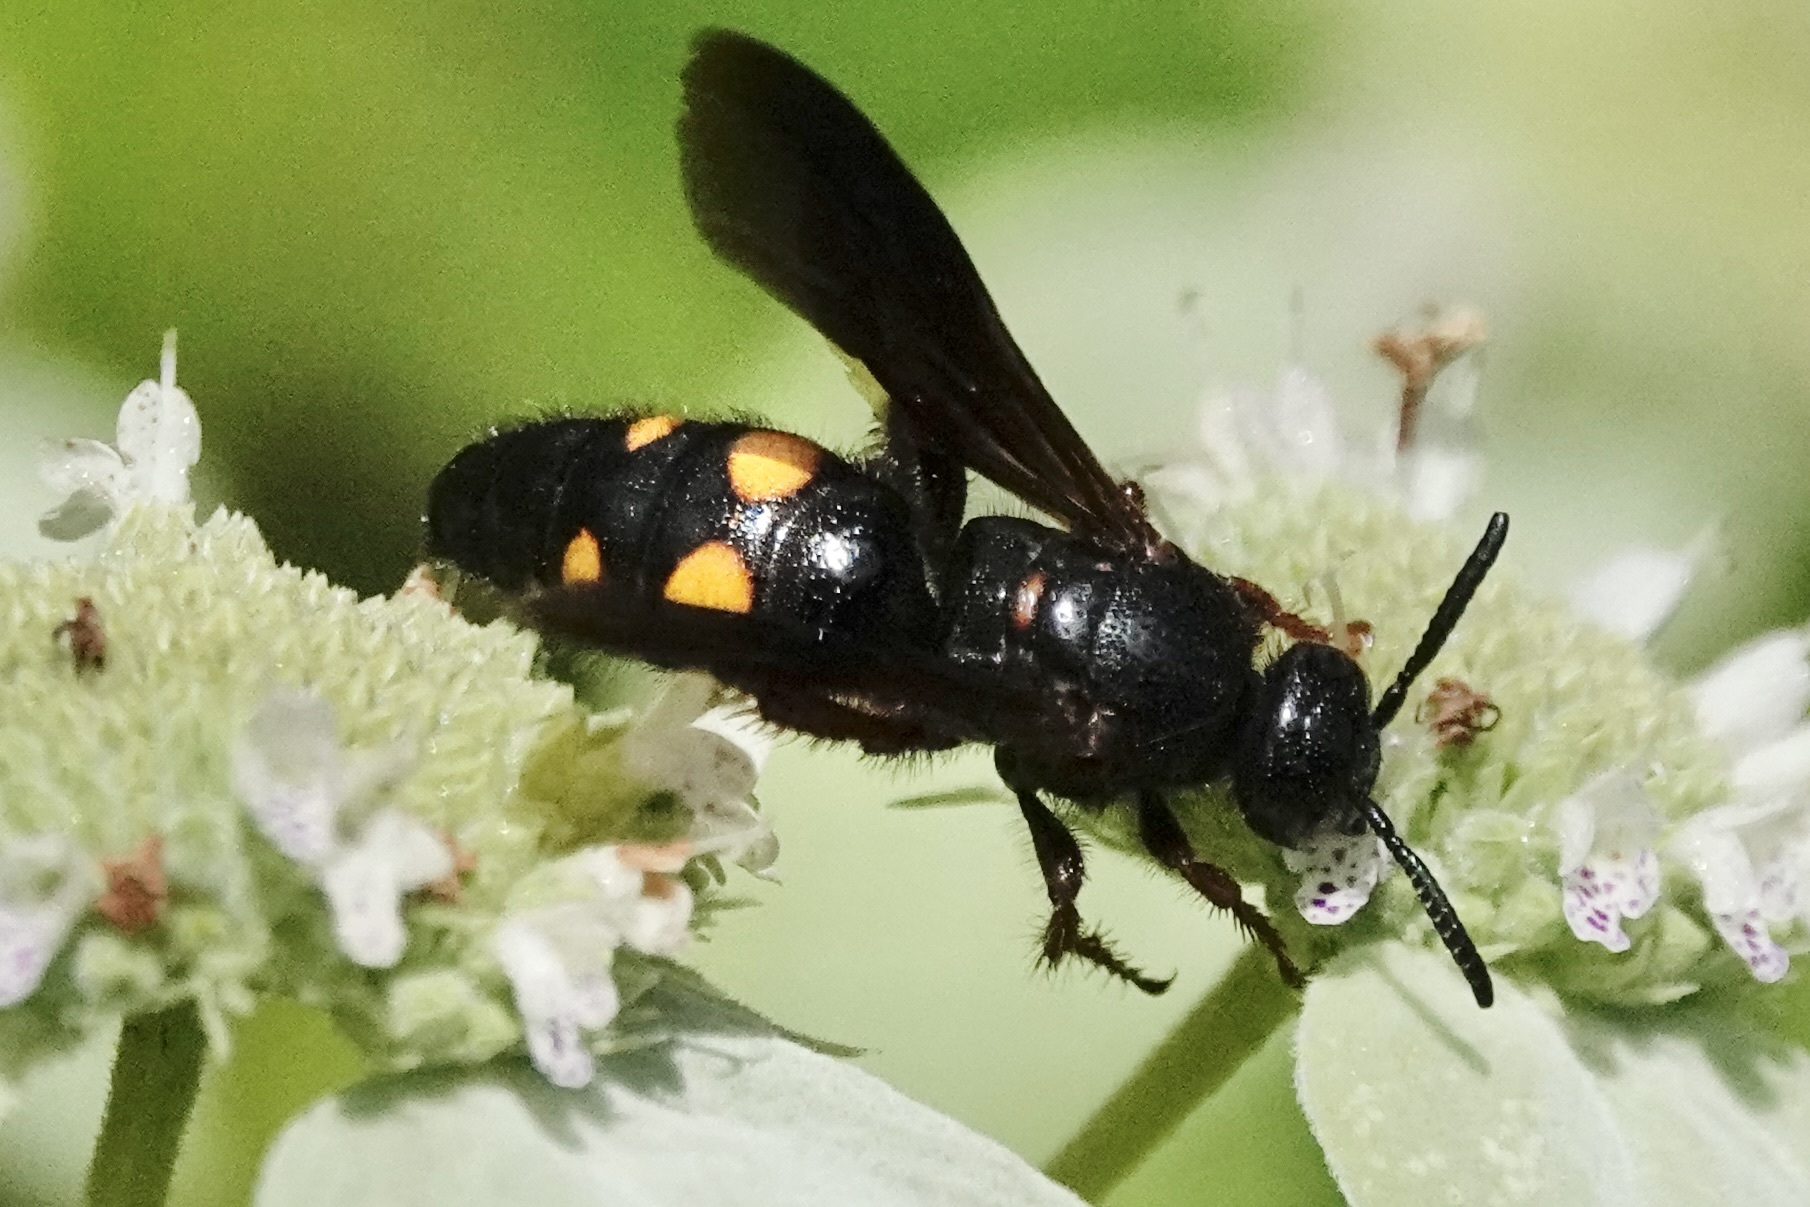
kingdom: Animalia
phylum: Arthropoda
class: Insecta
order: Hymenoptera
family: Scoliidae
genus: Scolia
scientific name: Scolia nobilitata
